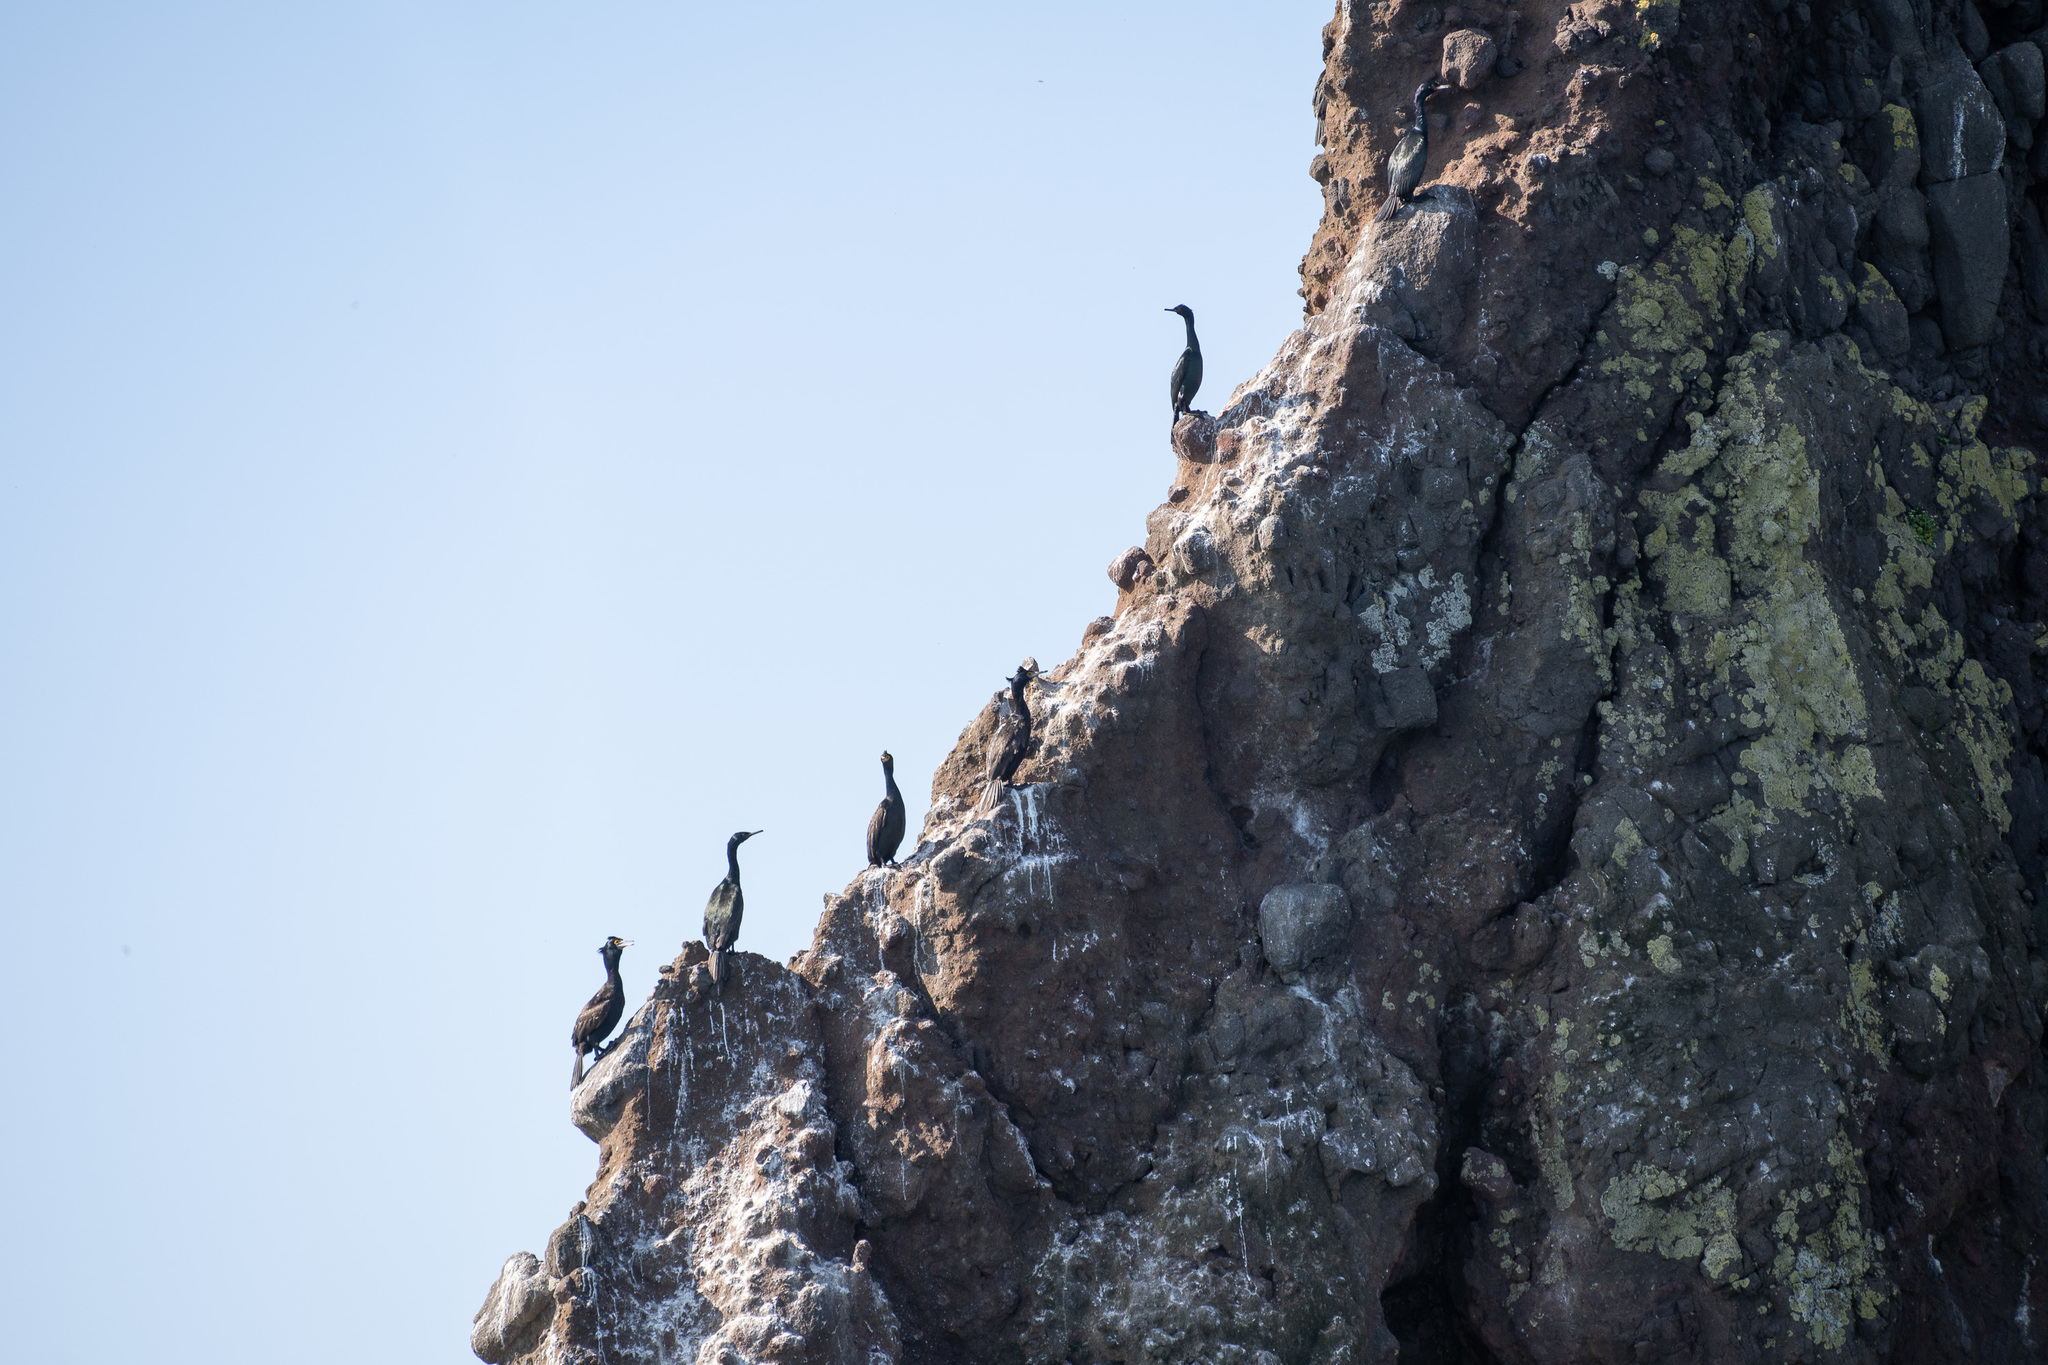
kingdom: Animalia
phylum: Chordata
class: Aves
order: Suliformes
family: Phalacrocoracidae
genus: Phalacrocorax
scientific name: Phalacrocorax urile
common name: Red-faced cormorant
